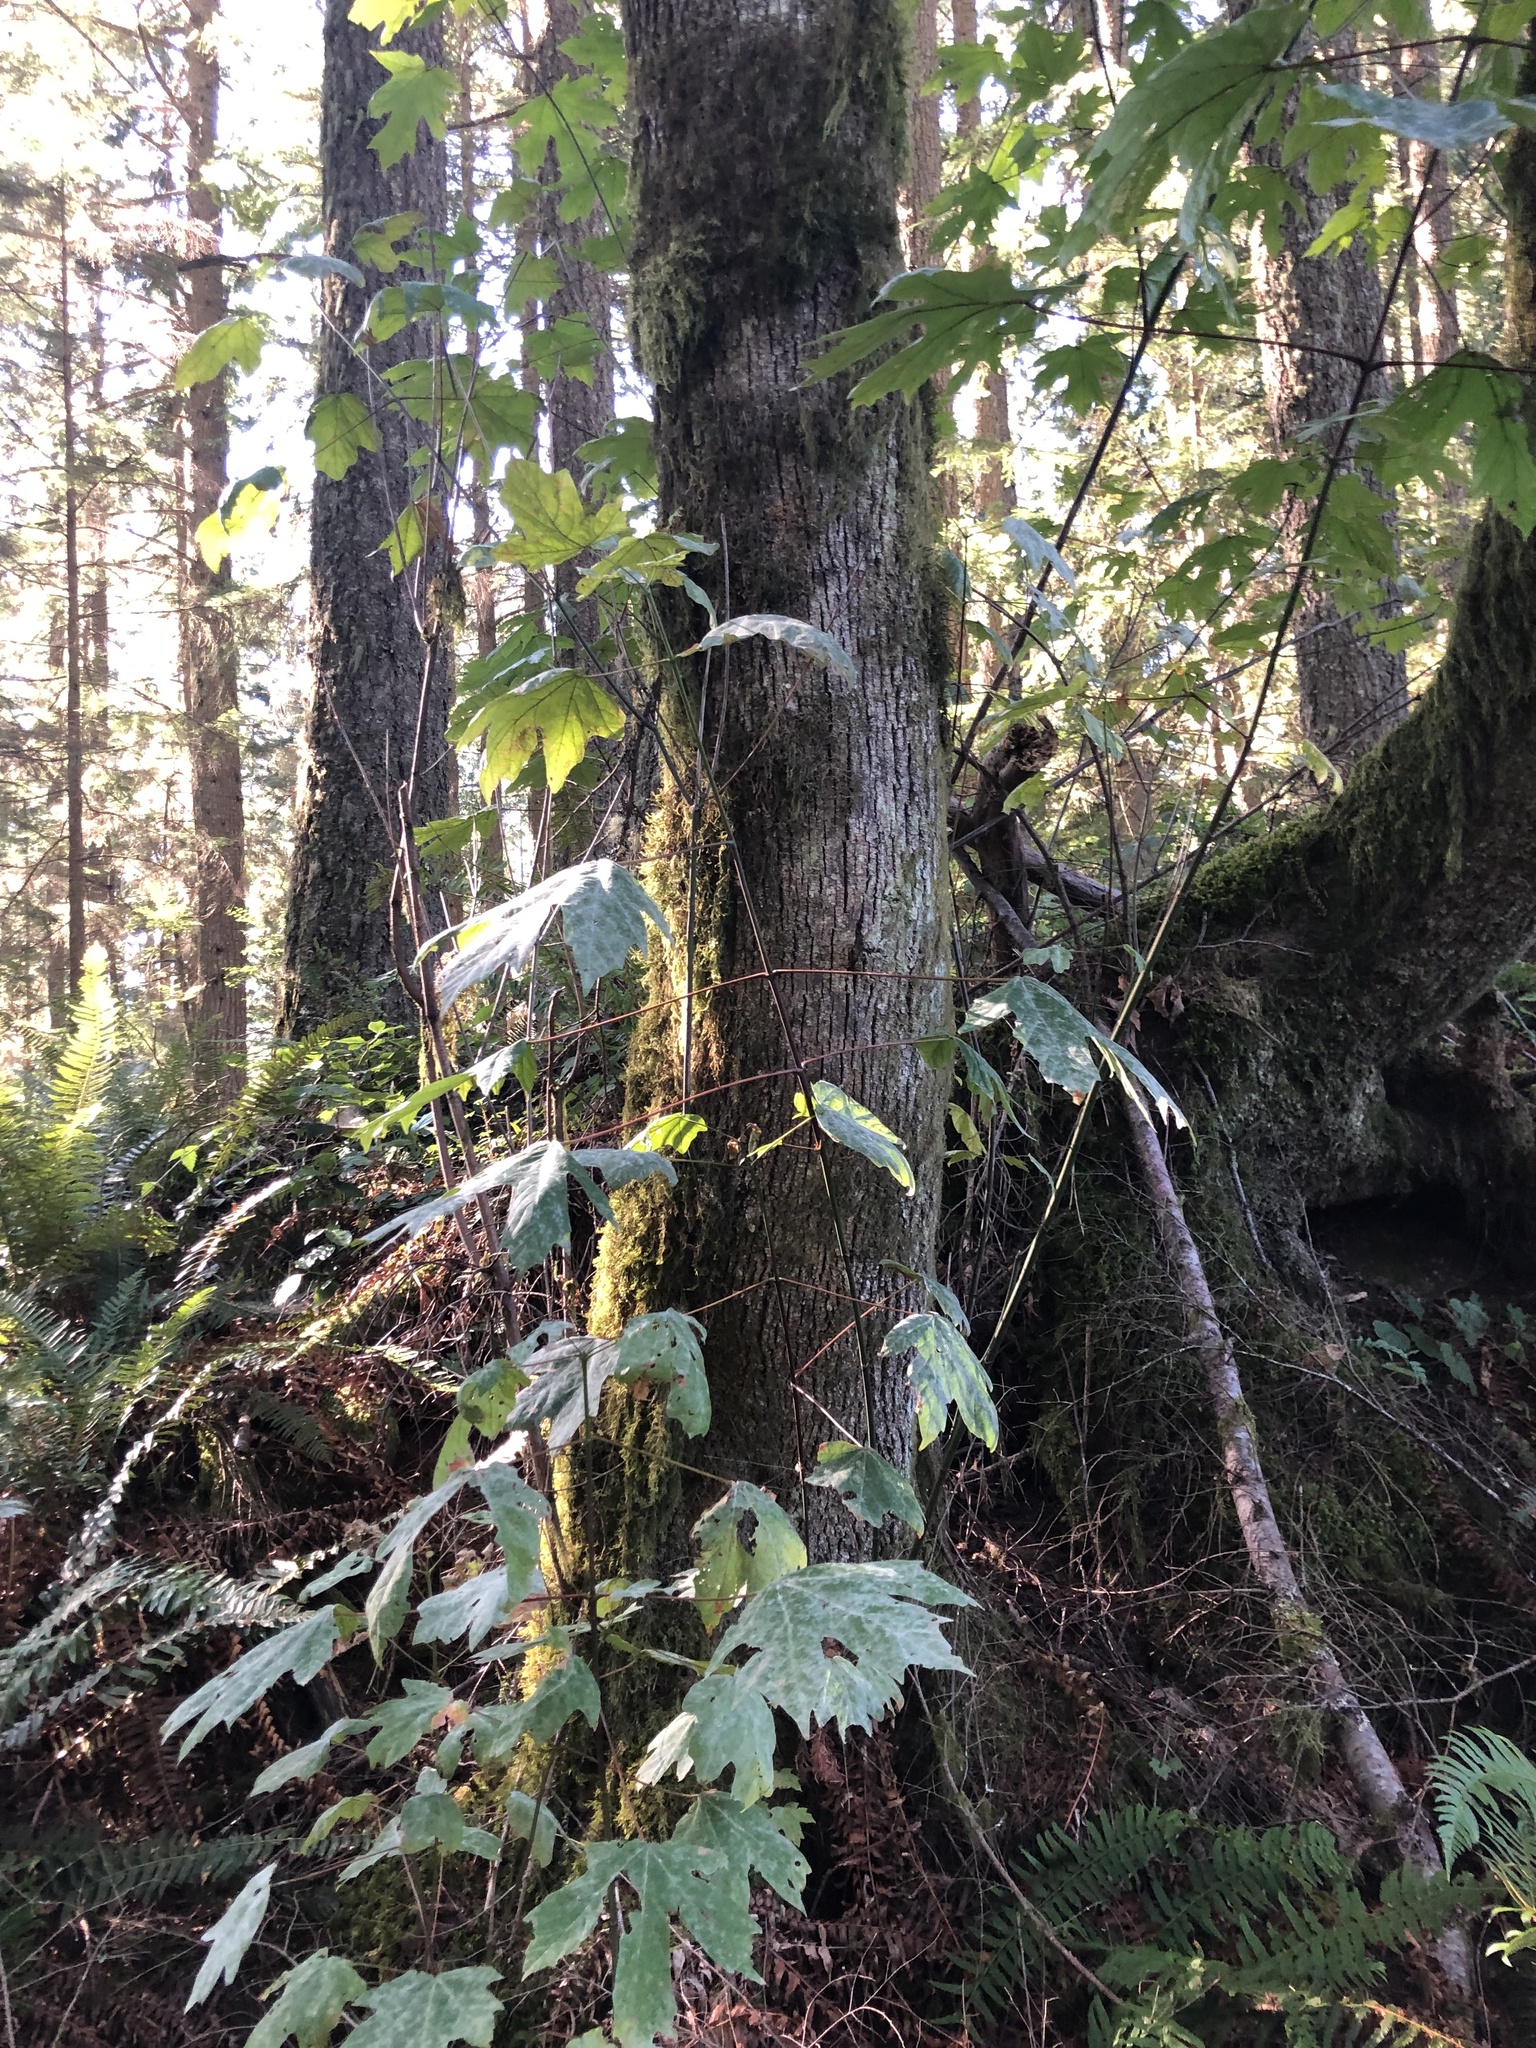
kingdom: Plantae
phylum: Tracheophyta
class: Magnoliopsida
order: Sapindales
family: Sapindaceae
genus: Acer
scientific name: Acer macrophyllum
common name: Oregon maple
